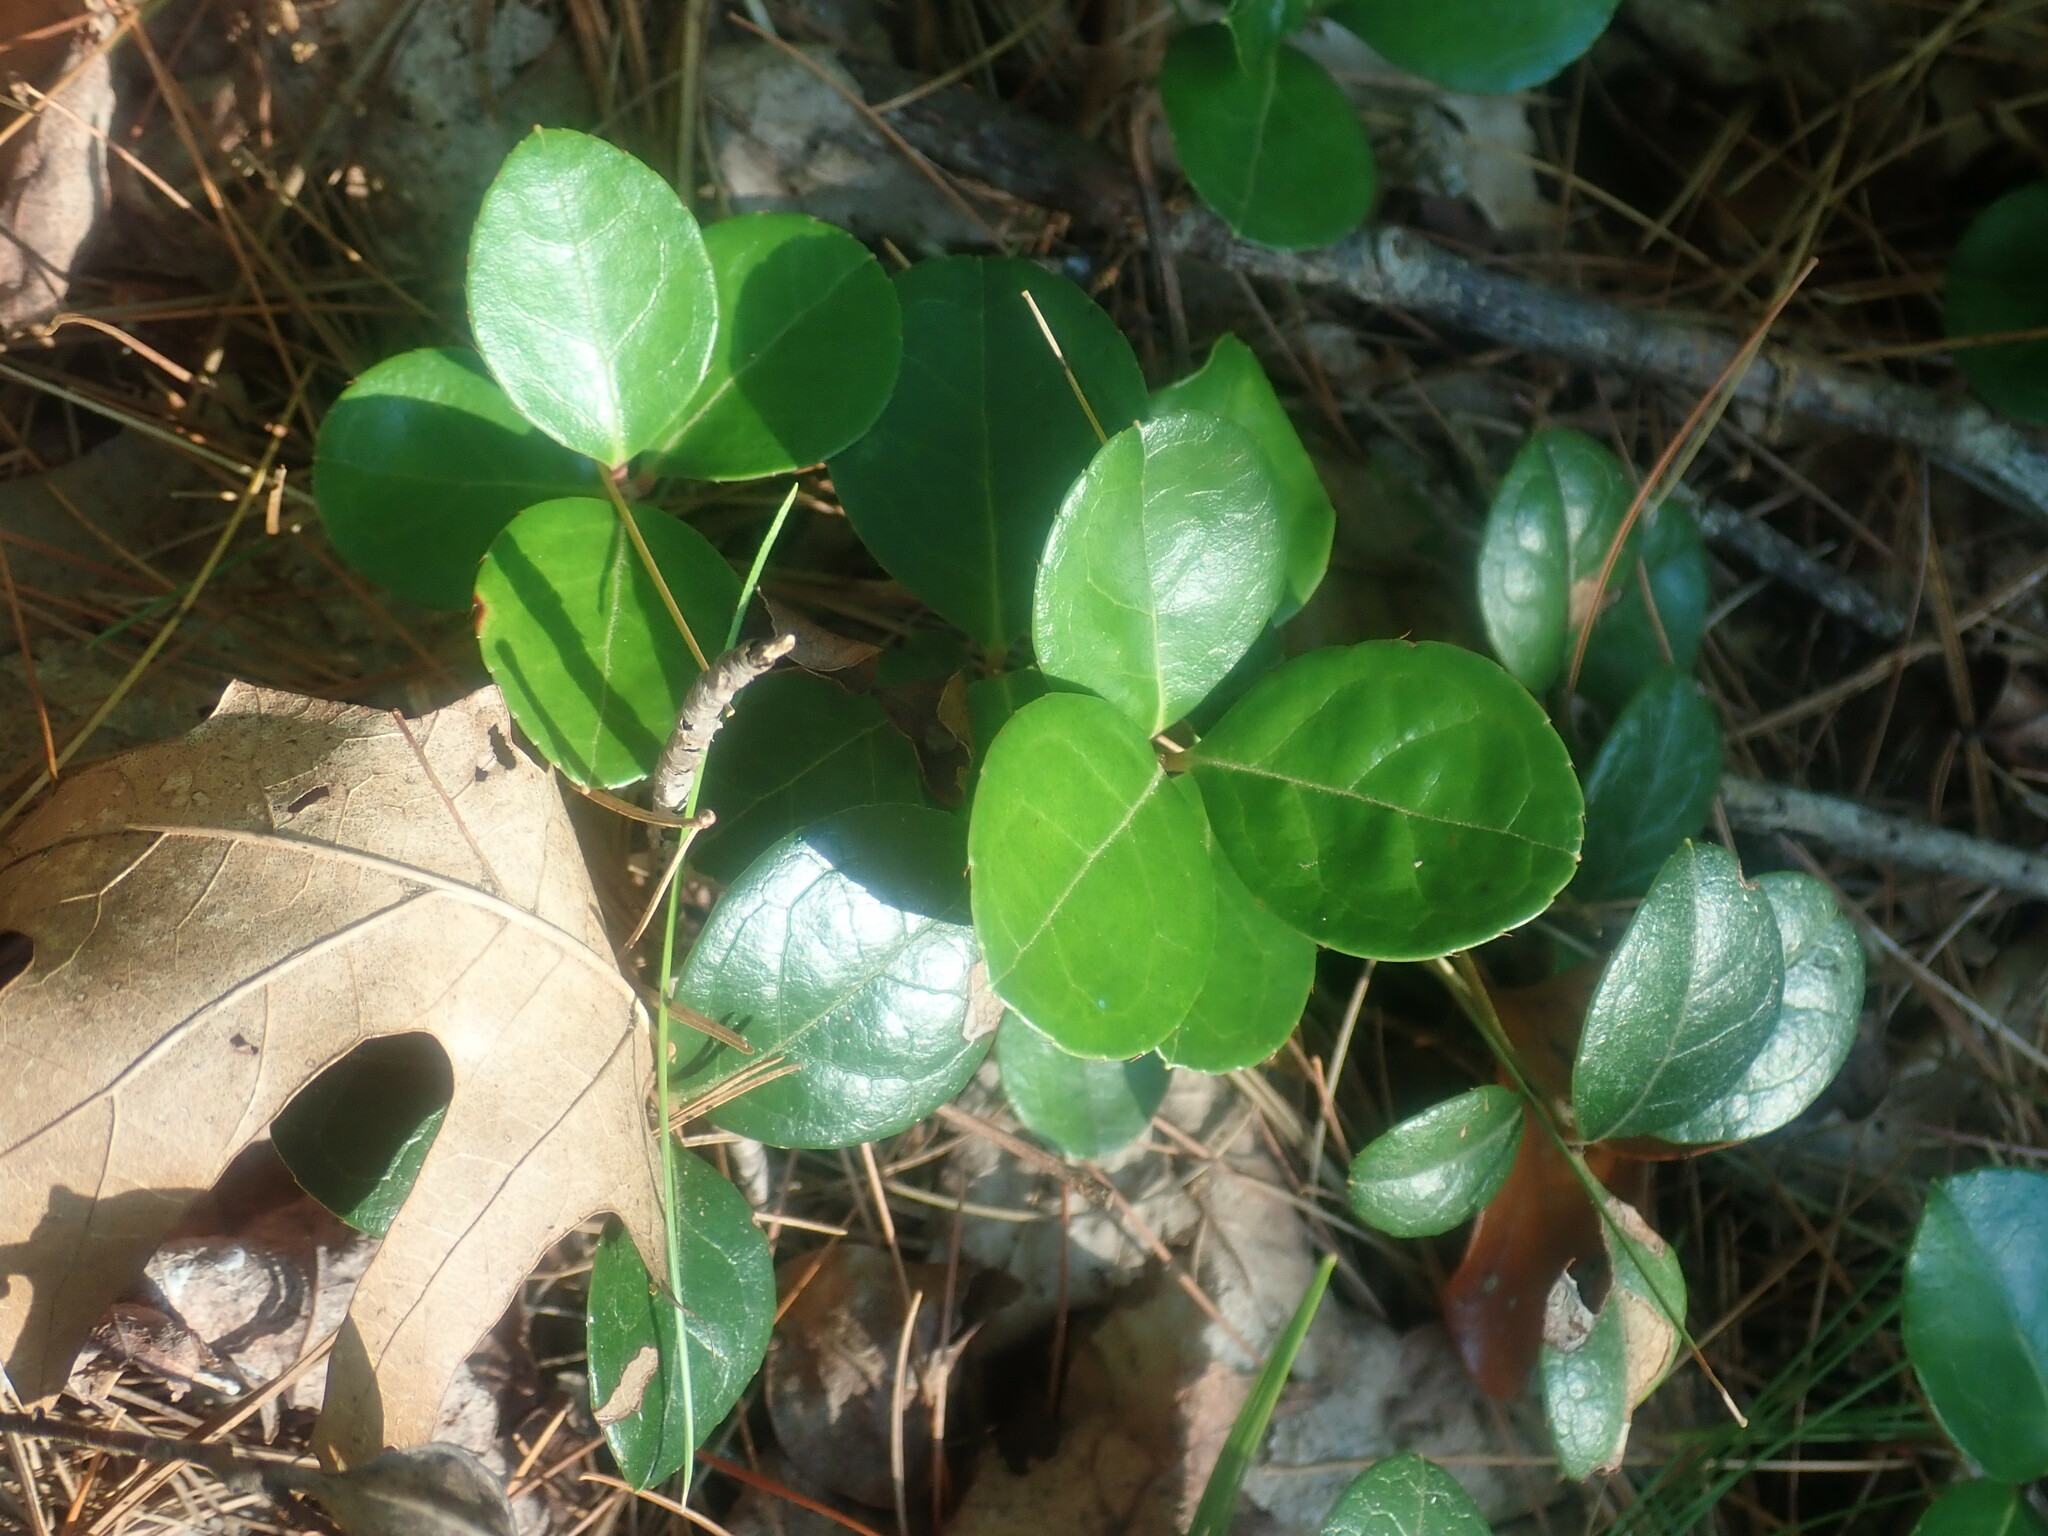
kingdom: Plantae
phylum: Tracheophyta
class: Magnoliopsida
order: Ericales
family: Ericaceae
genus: Gaultheria
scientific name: Gaultheria procumbens
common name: Checkerberry
